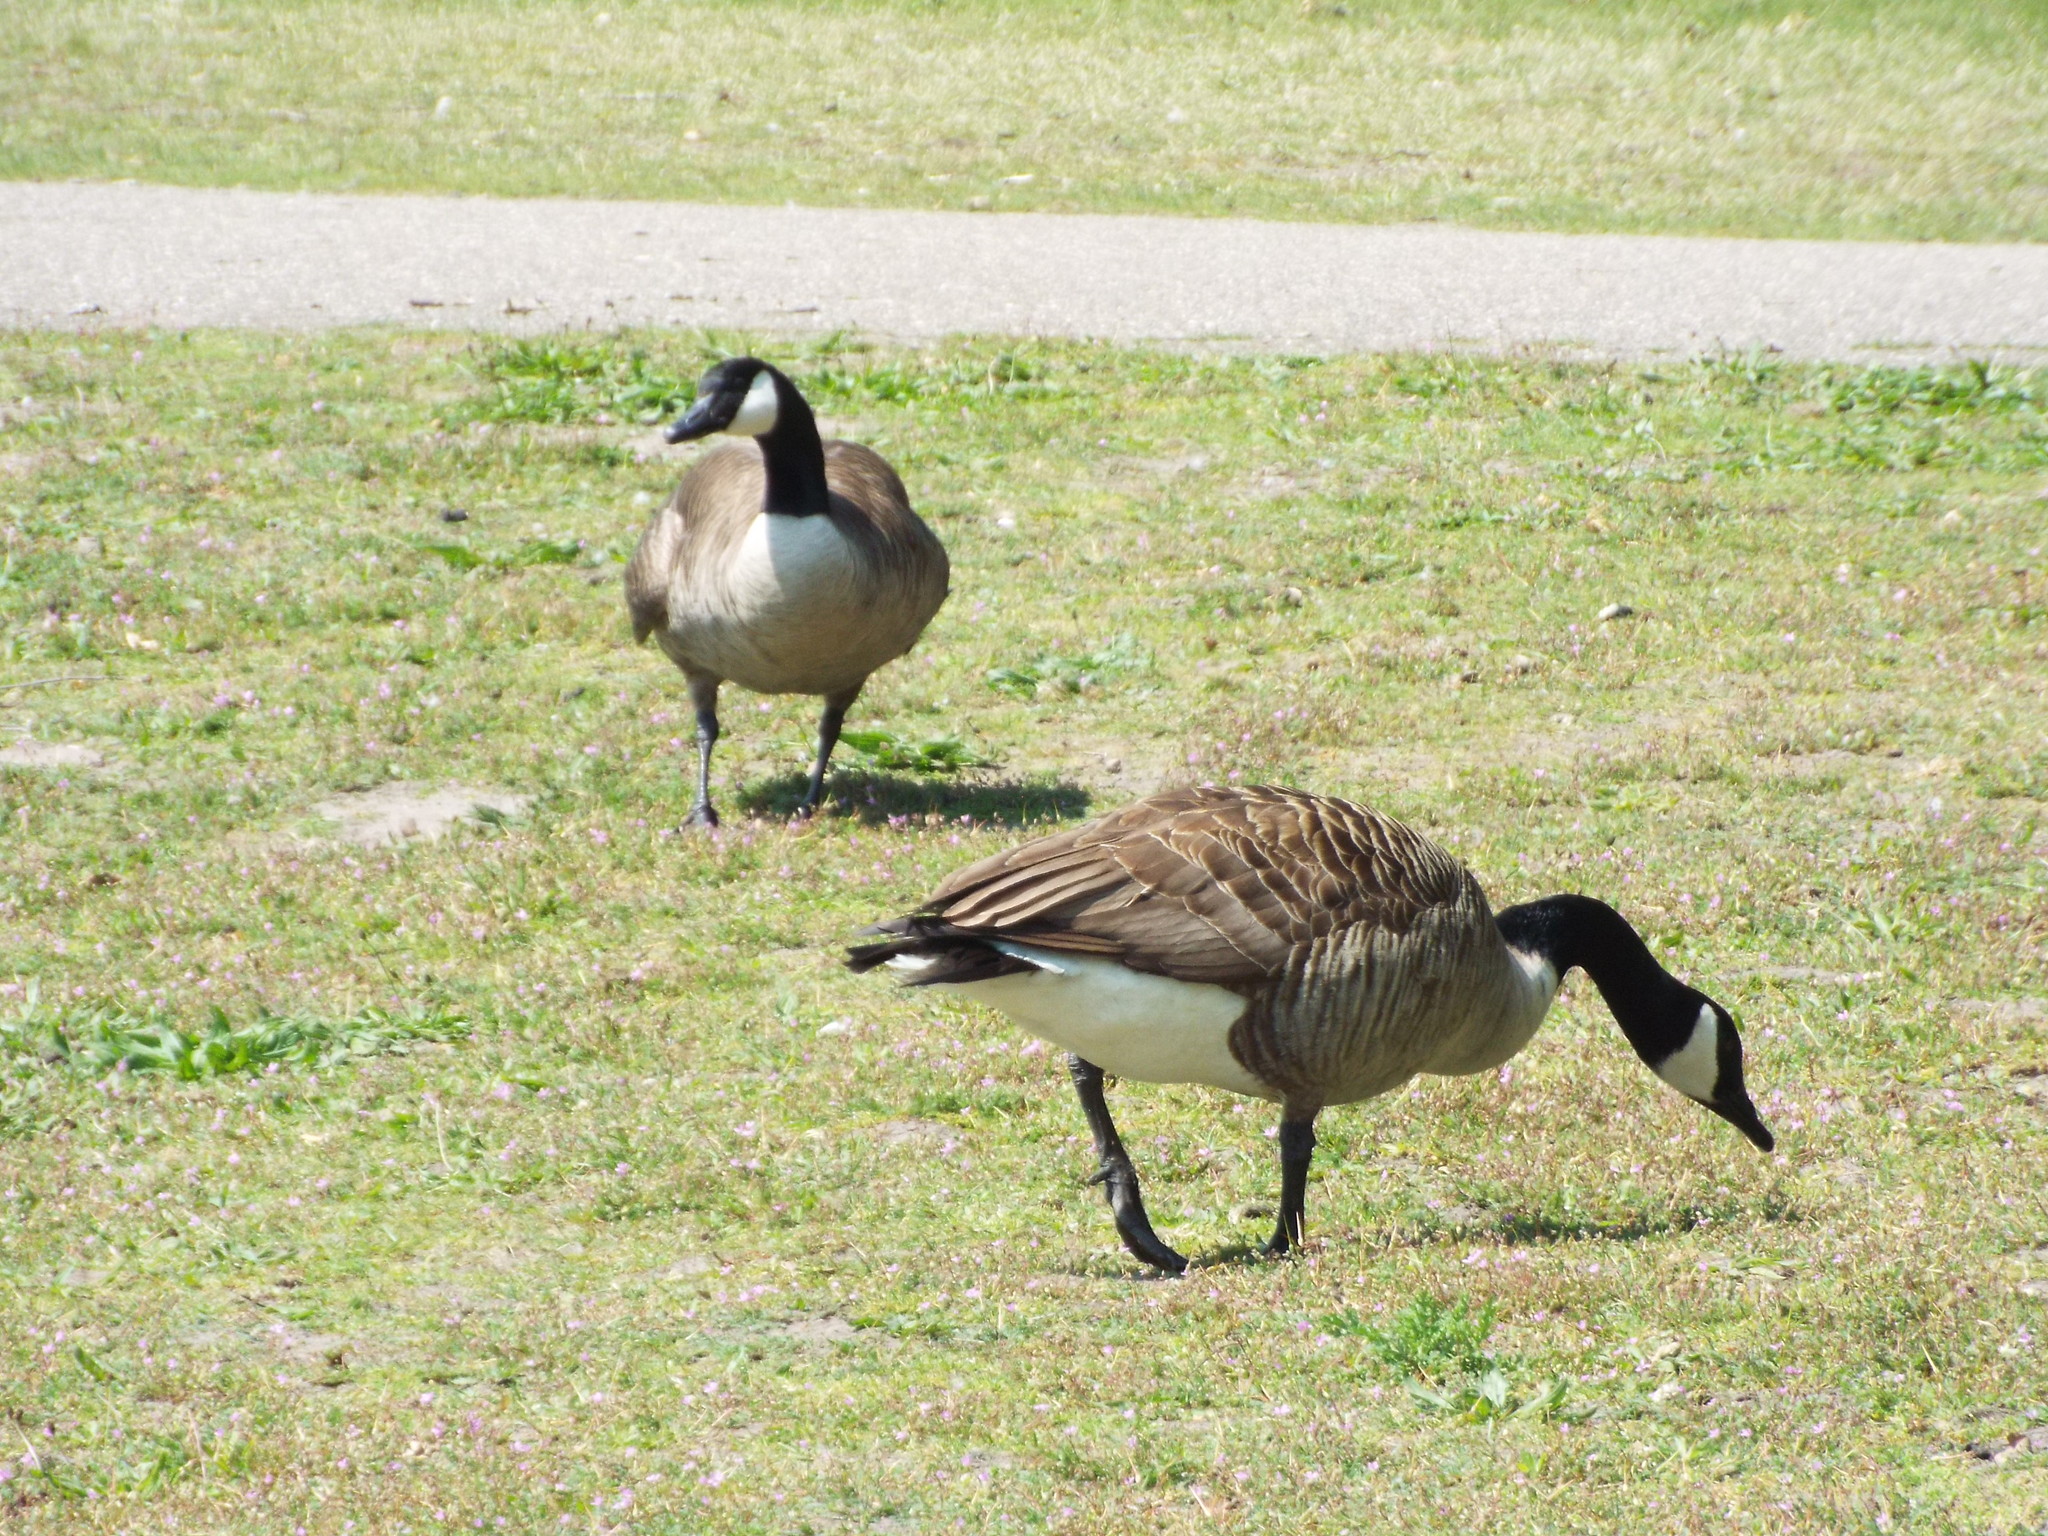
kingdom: Animalia
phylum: Chordata
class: Aves
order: Anseriformes
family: Anatidae
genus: Branta
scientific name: Branta canadensis
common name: Canada goose
